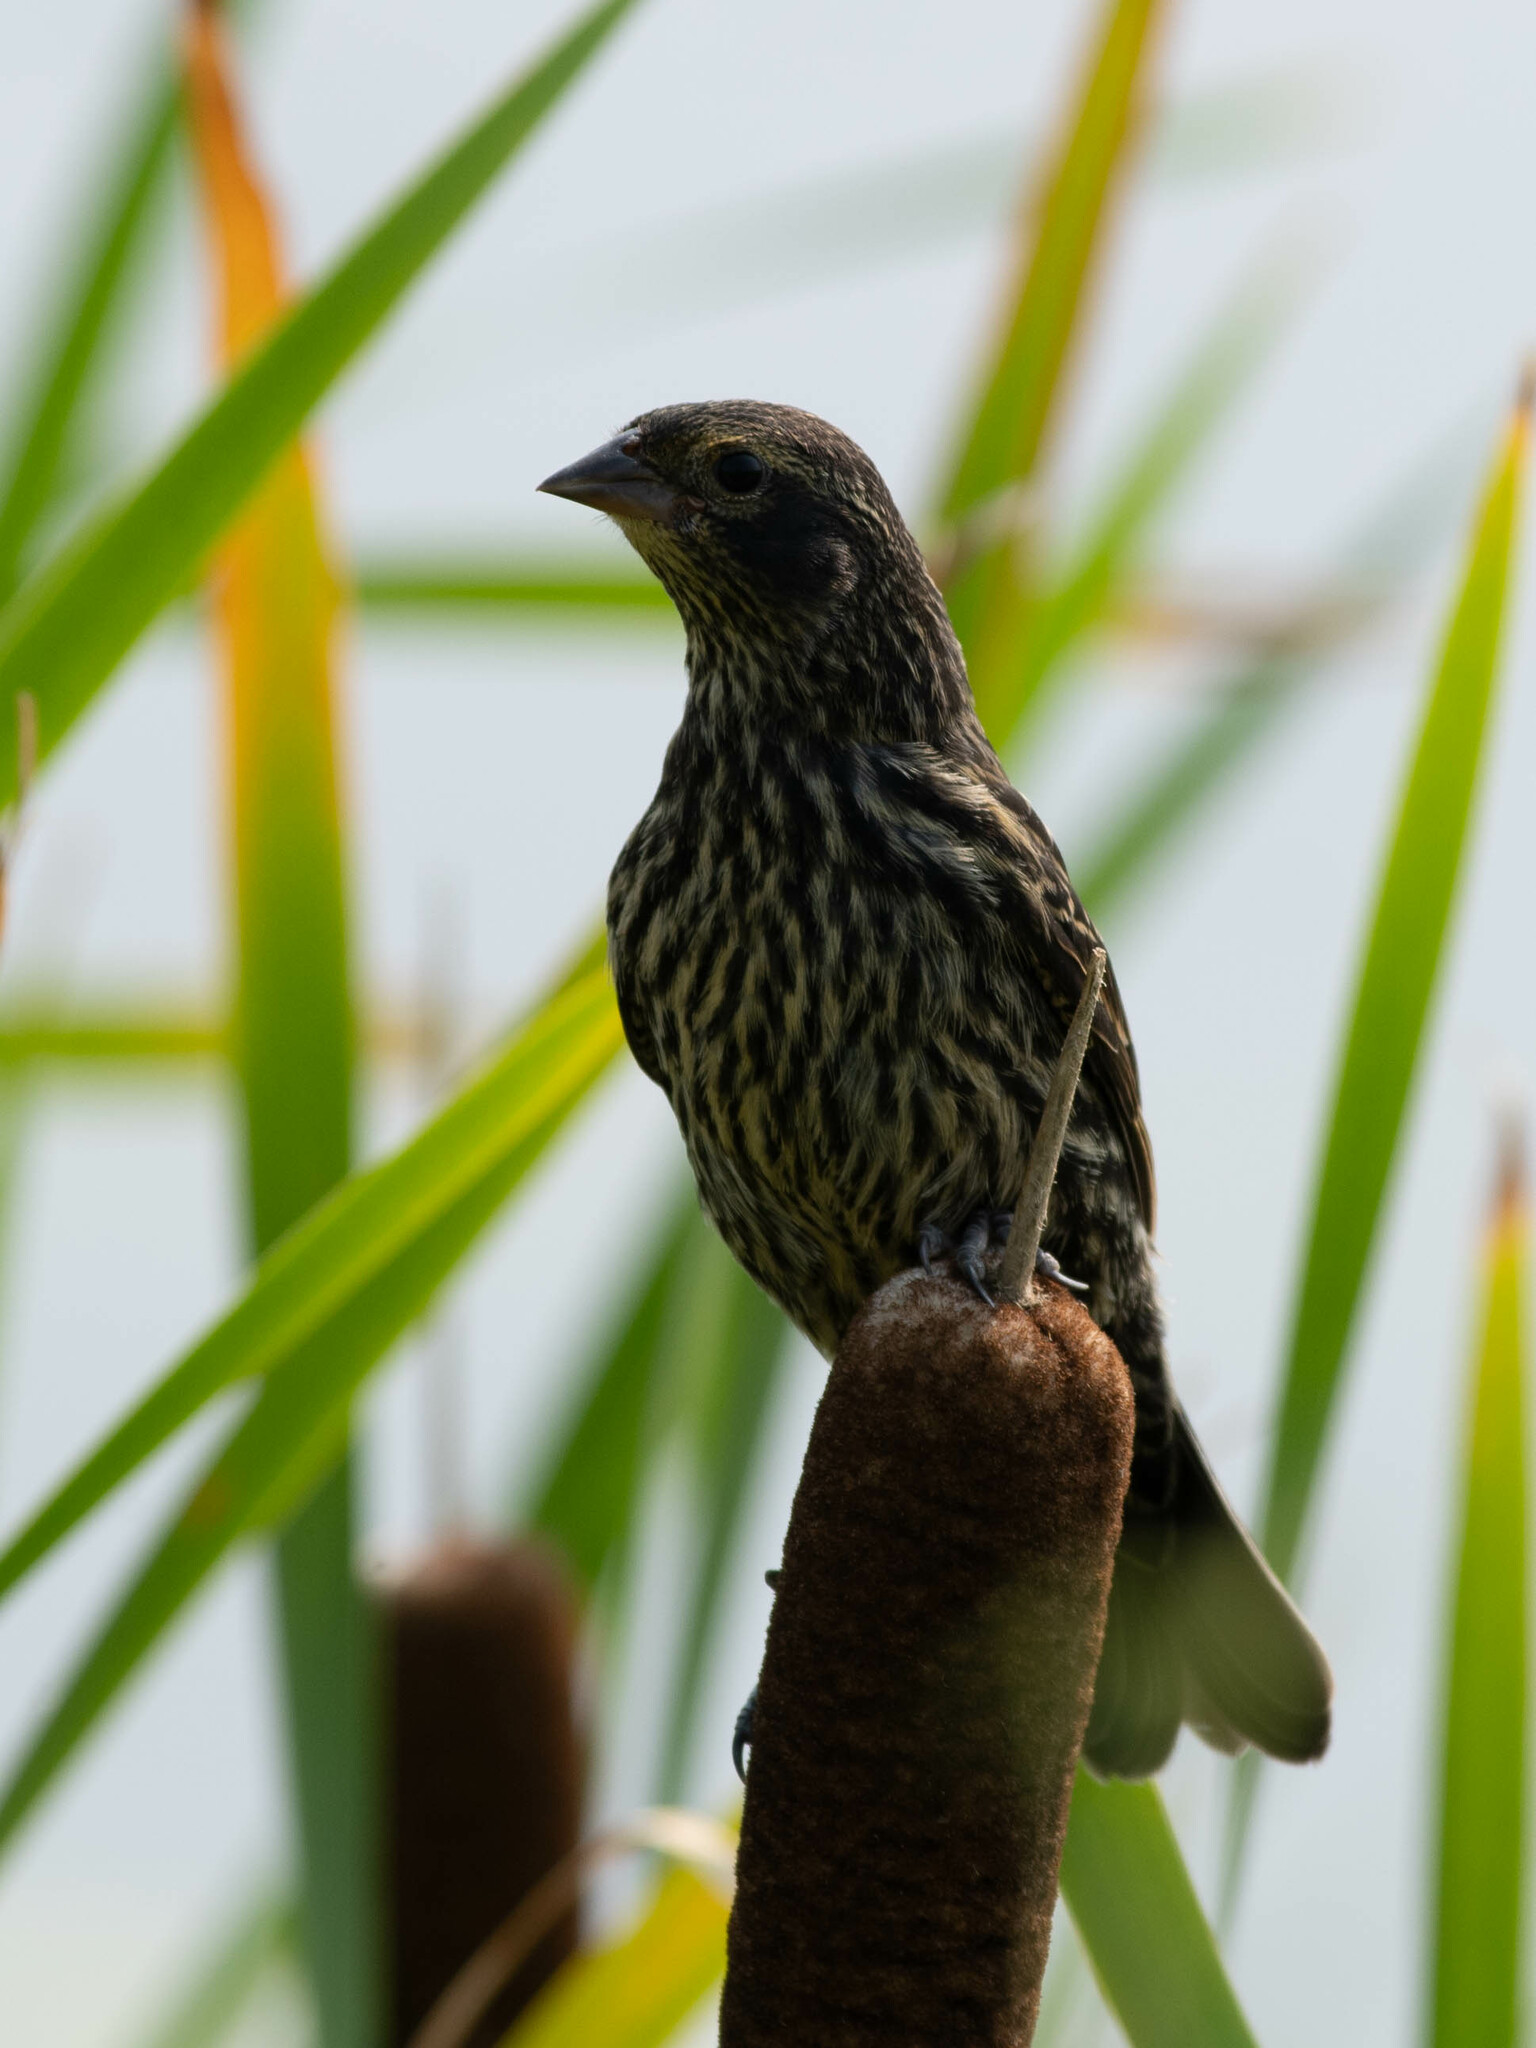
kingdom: Animalia
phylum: Chordata
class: Aves
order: Passeriformes
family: Icteridae
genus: Agelaius
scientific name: Agelaius phoeniceus
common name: Red-winged blackbird
